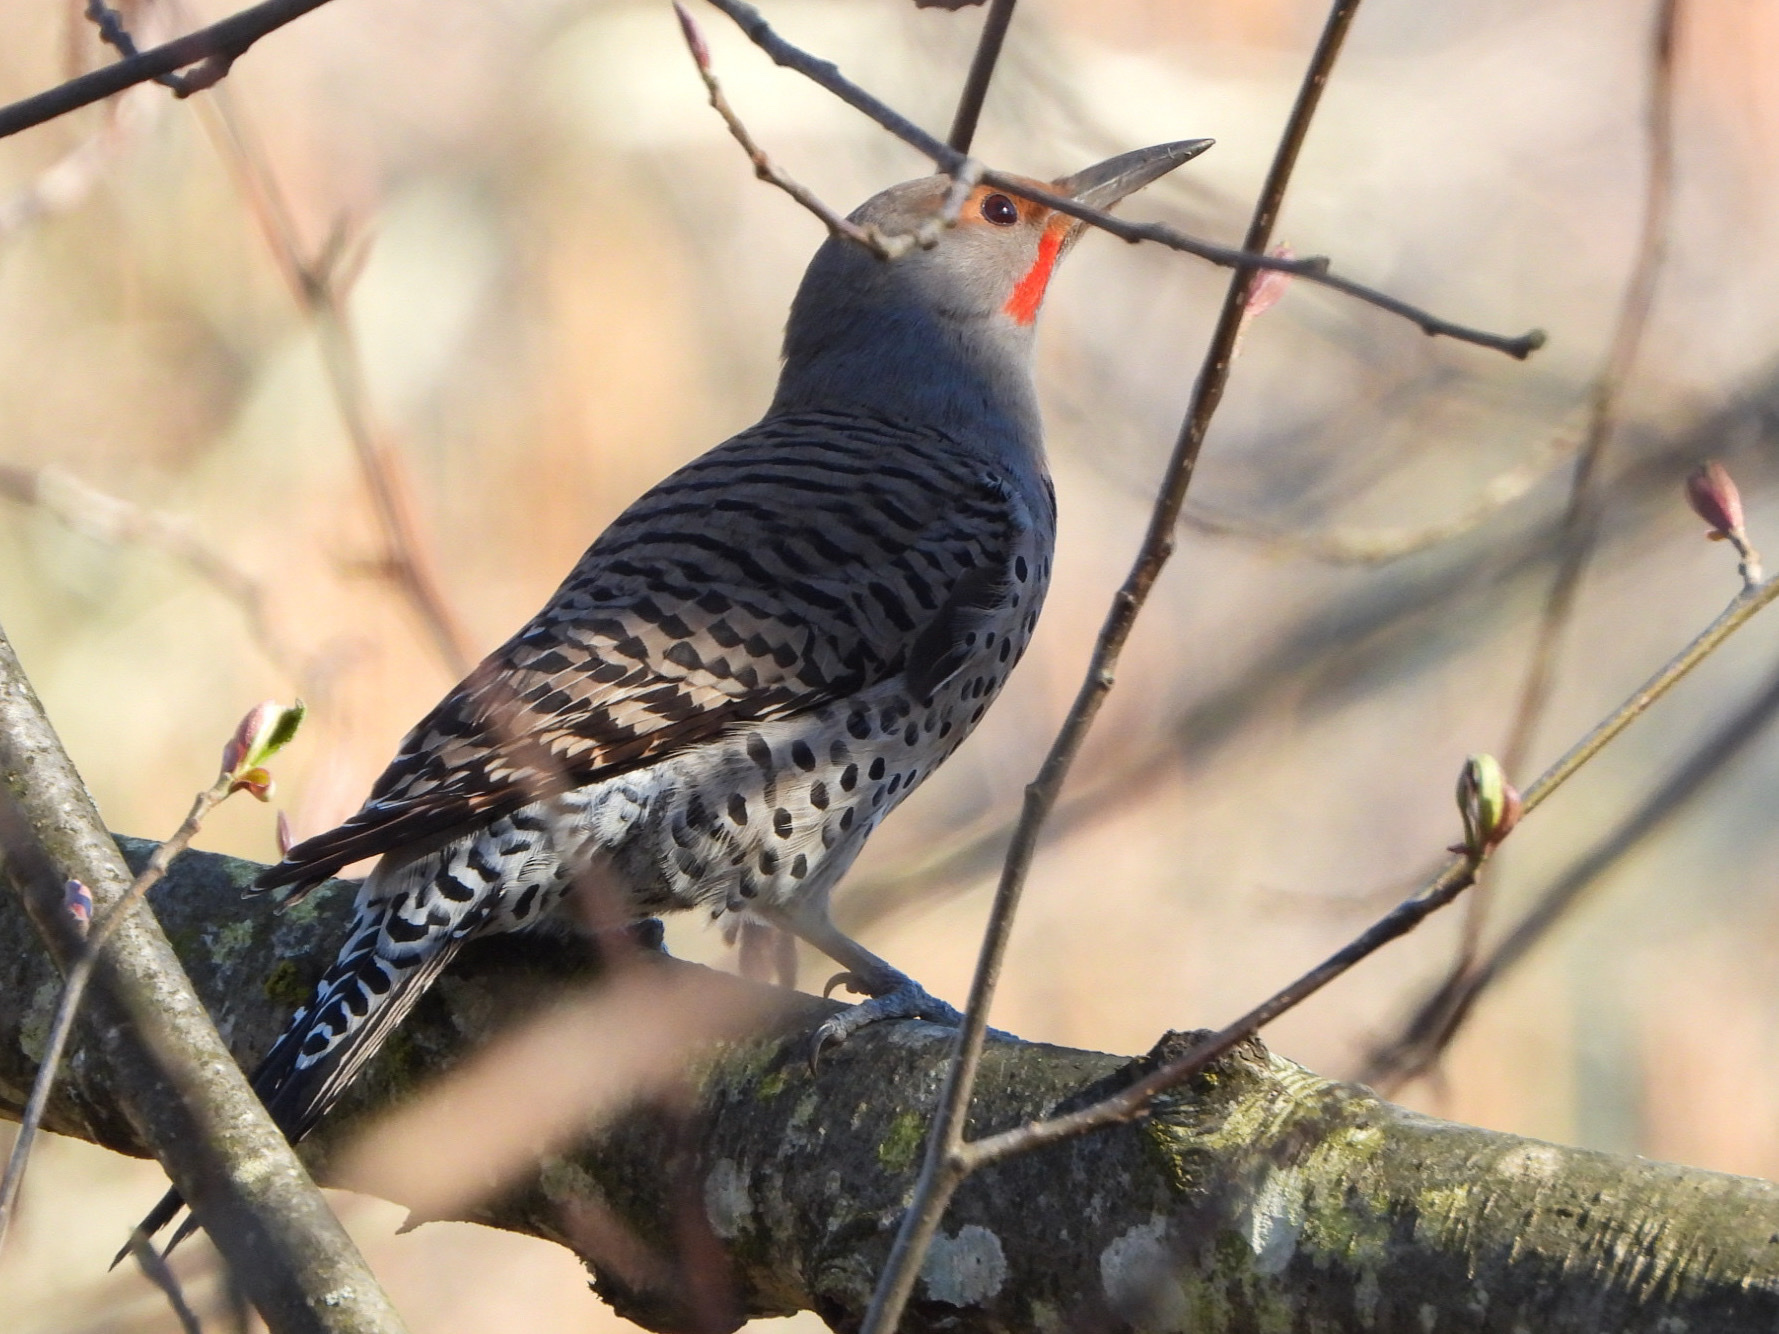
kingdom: Animalia
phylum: Chordata
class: Aves
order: Piciformes
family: Picidae
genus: Colaptes
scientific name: Colaptes auratus
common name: Northern flicker
